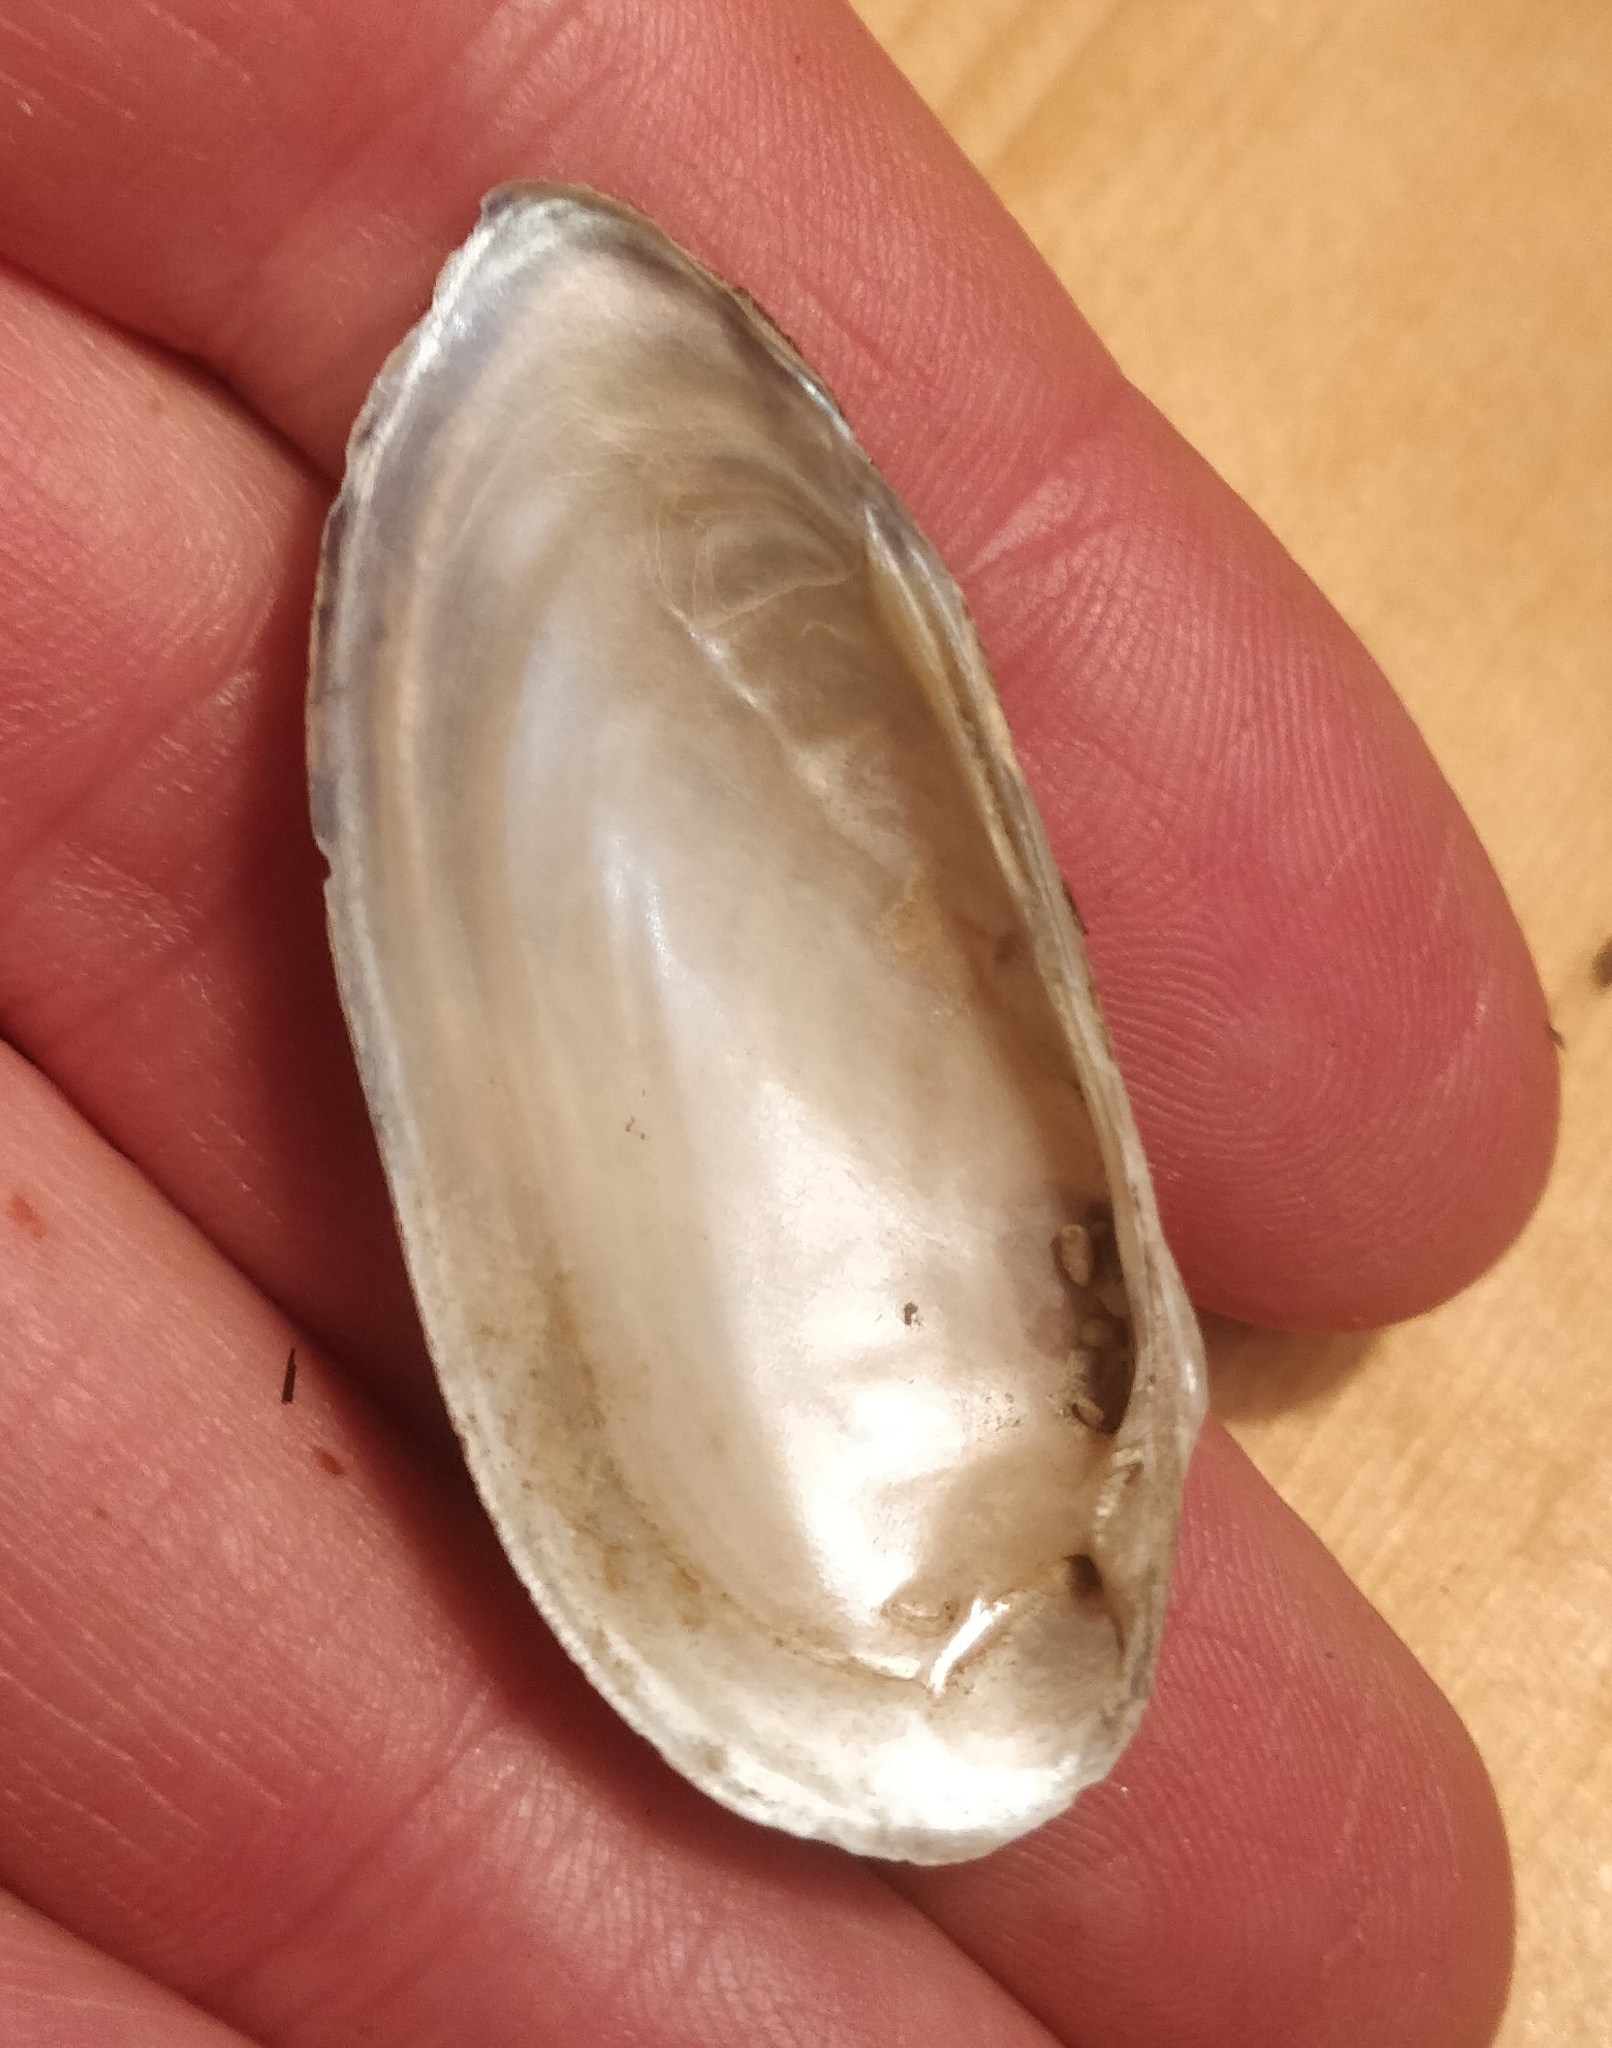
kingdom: Animalia
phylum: Mollusca
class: Bivalvia
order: Unionida
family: Unionidae
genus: Lampsilis
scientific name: Lampsilis teres
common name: Yellow sandshell
